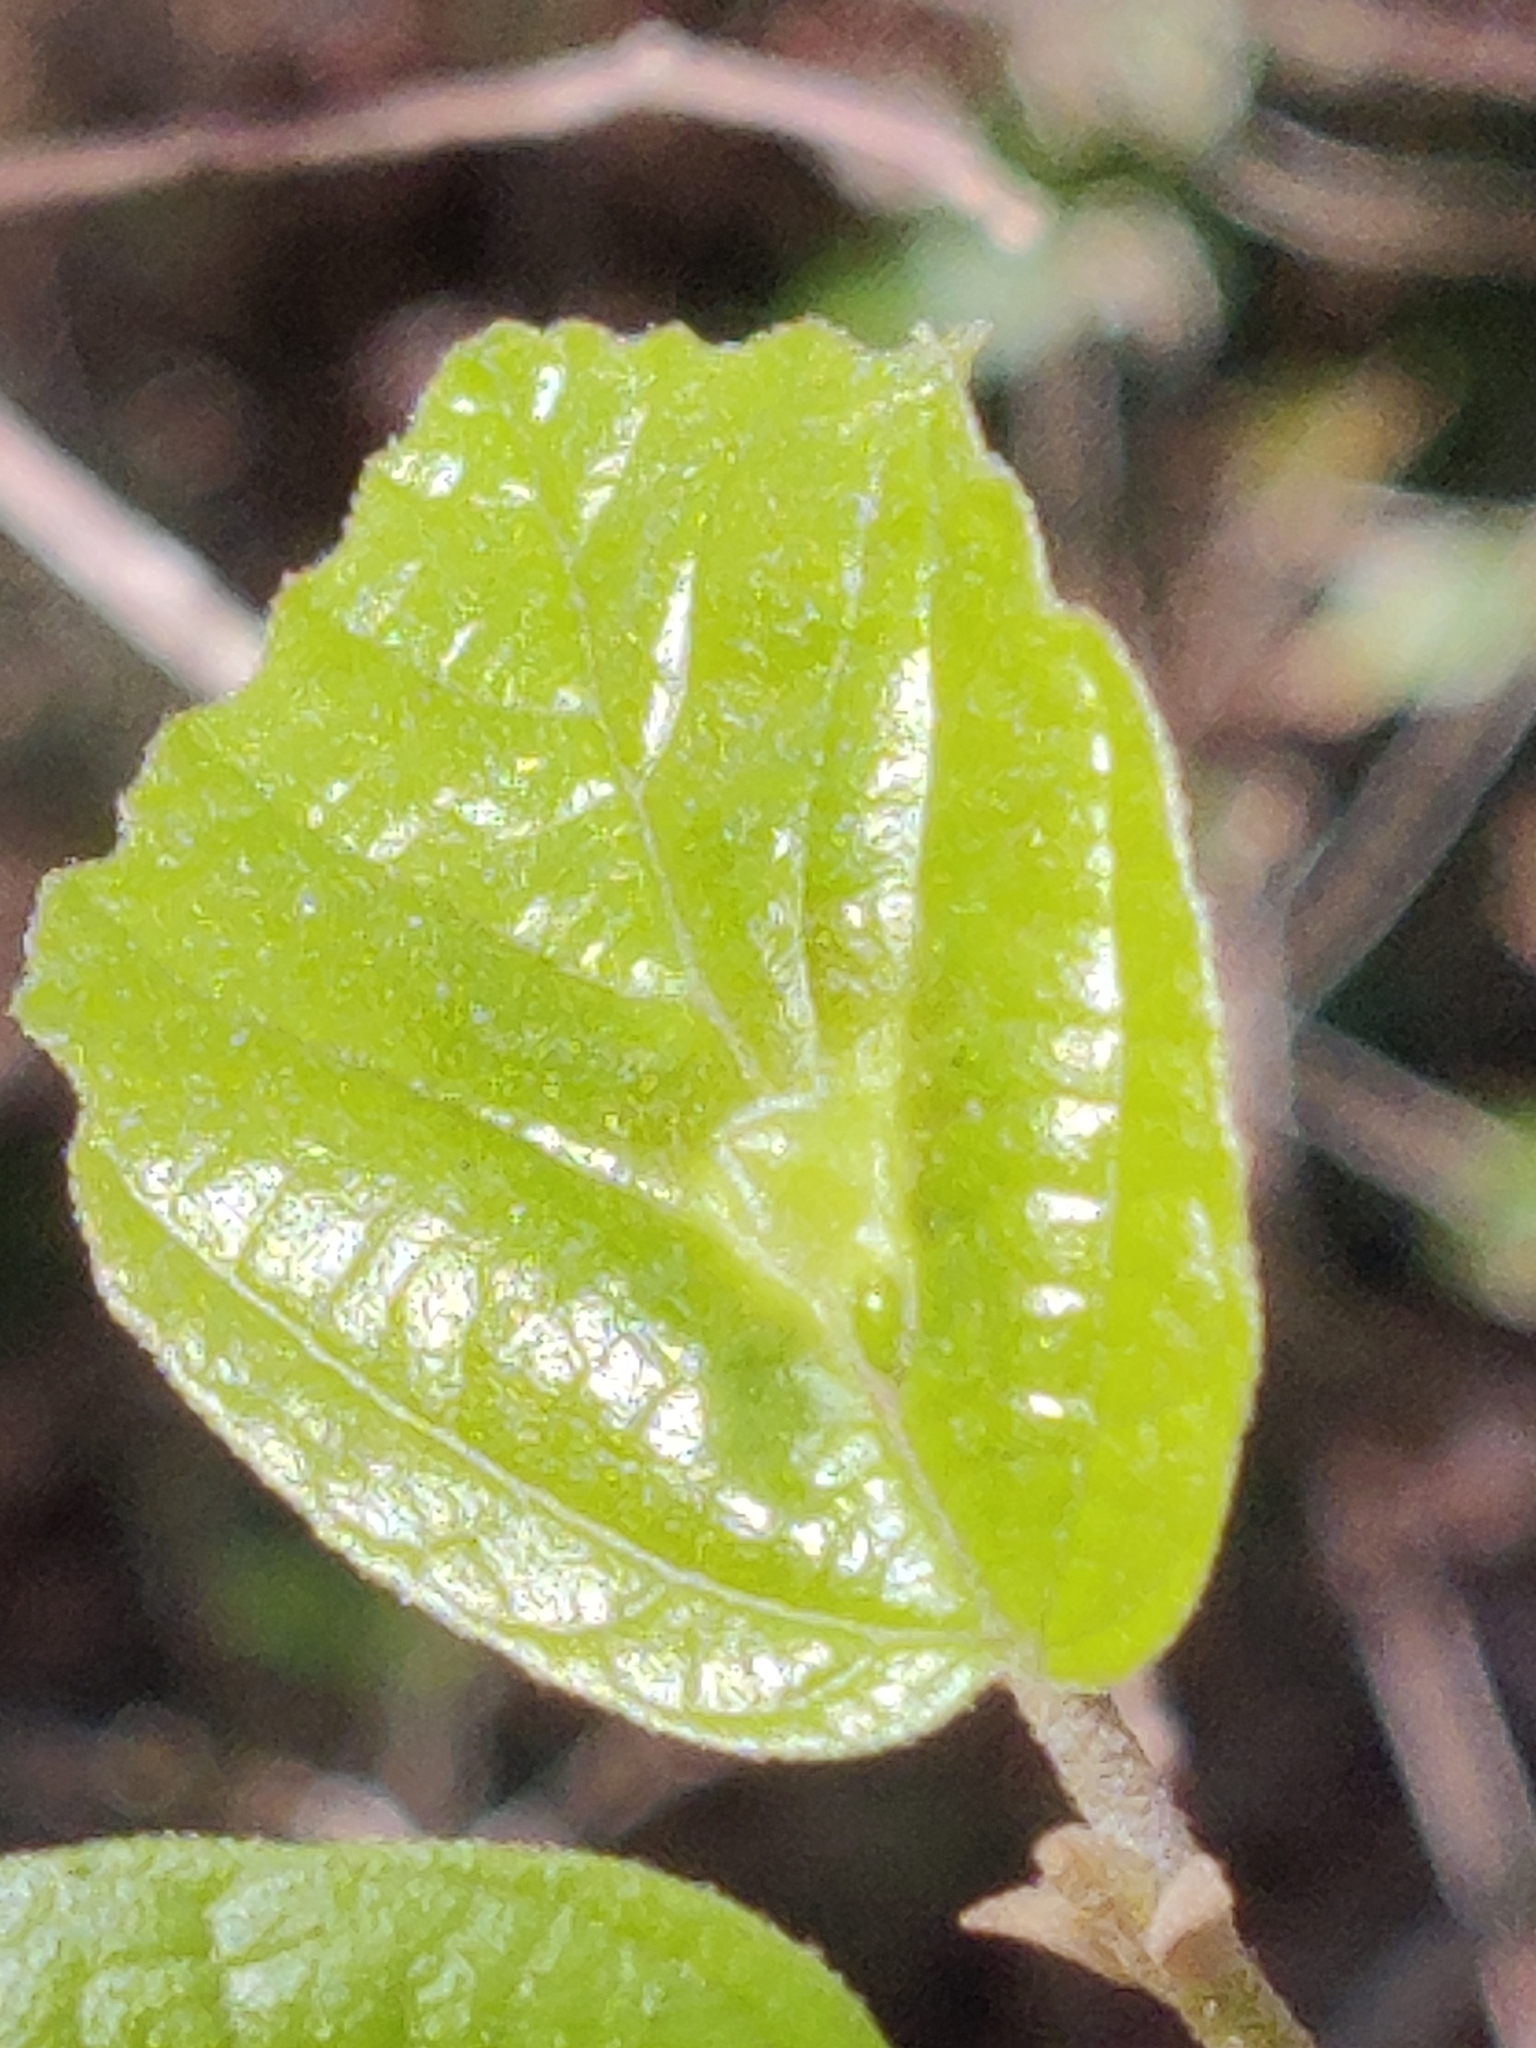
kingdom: Animalia
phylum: Arthropoda
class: Insecta
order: Hemiptera
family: Aphididae
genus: Hormaphis
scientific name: Hormaphis hamamelidis
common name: Witch-hazel cone gall aphid
